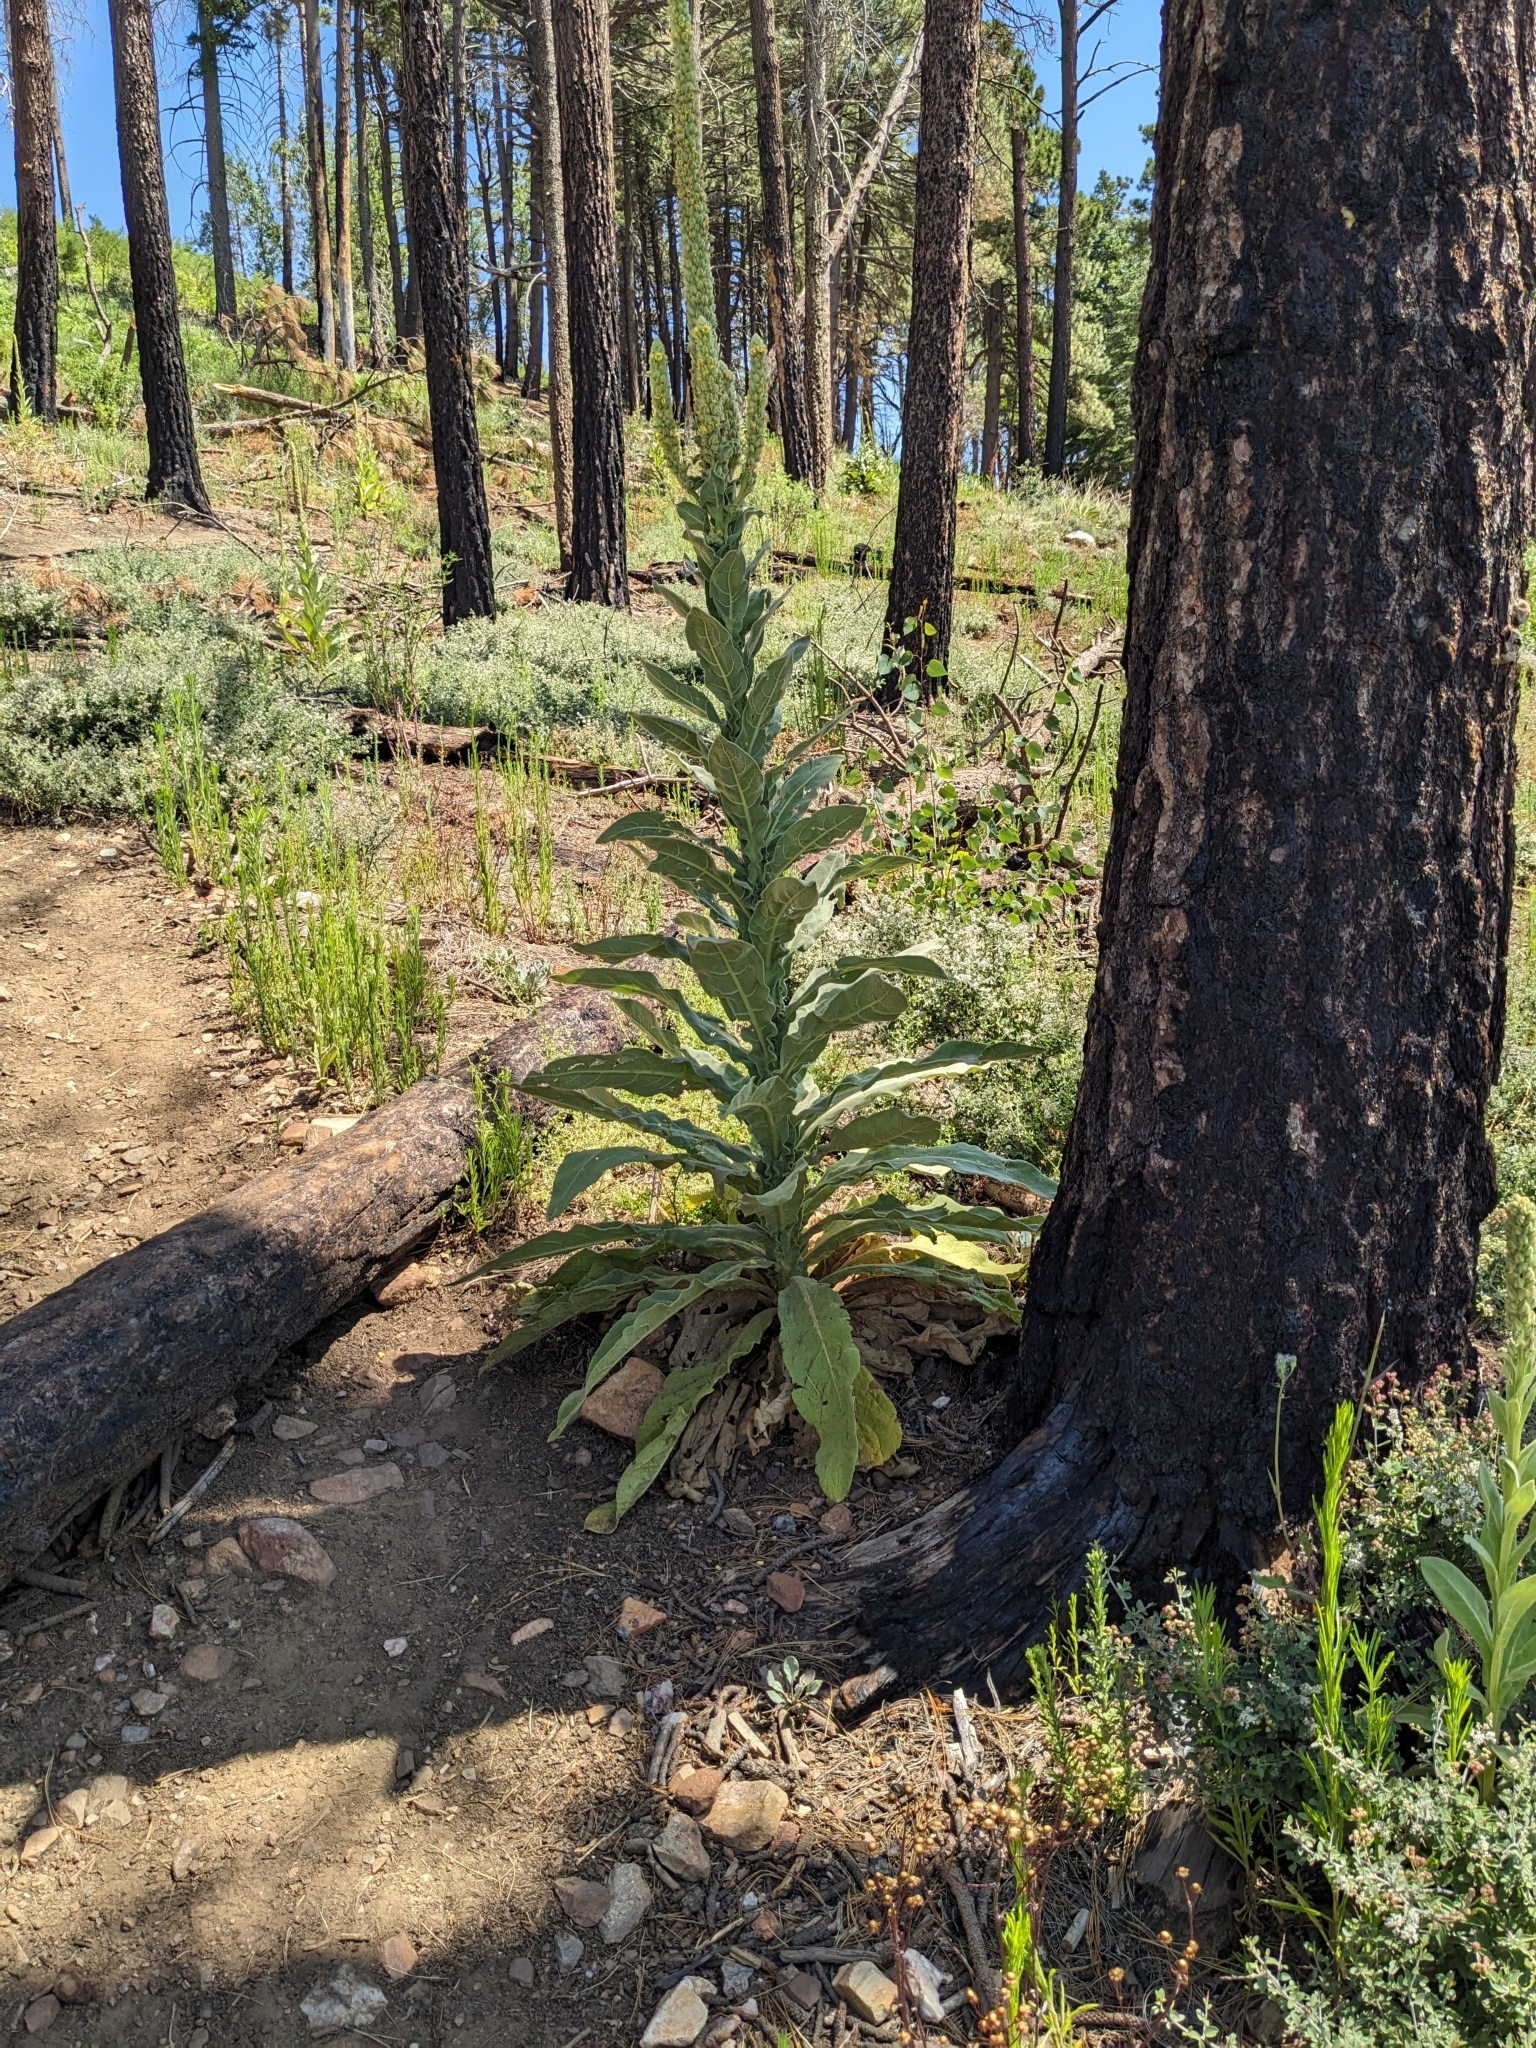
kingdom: Plantae
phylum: Tracheophyta
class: Magnoliopsida
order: Lamiales
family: Scrophulariaceae
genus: Verbascum
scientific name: Verbascum thapsus
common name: Common mullein
